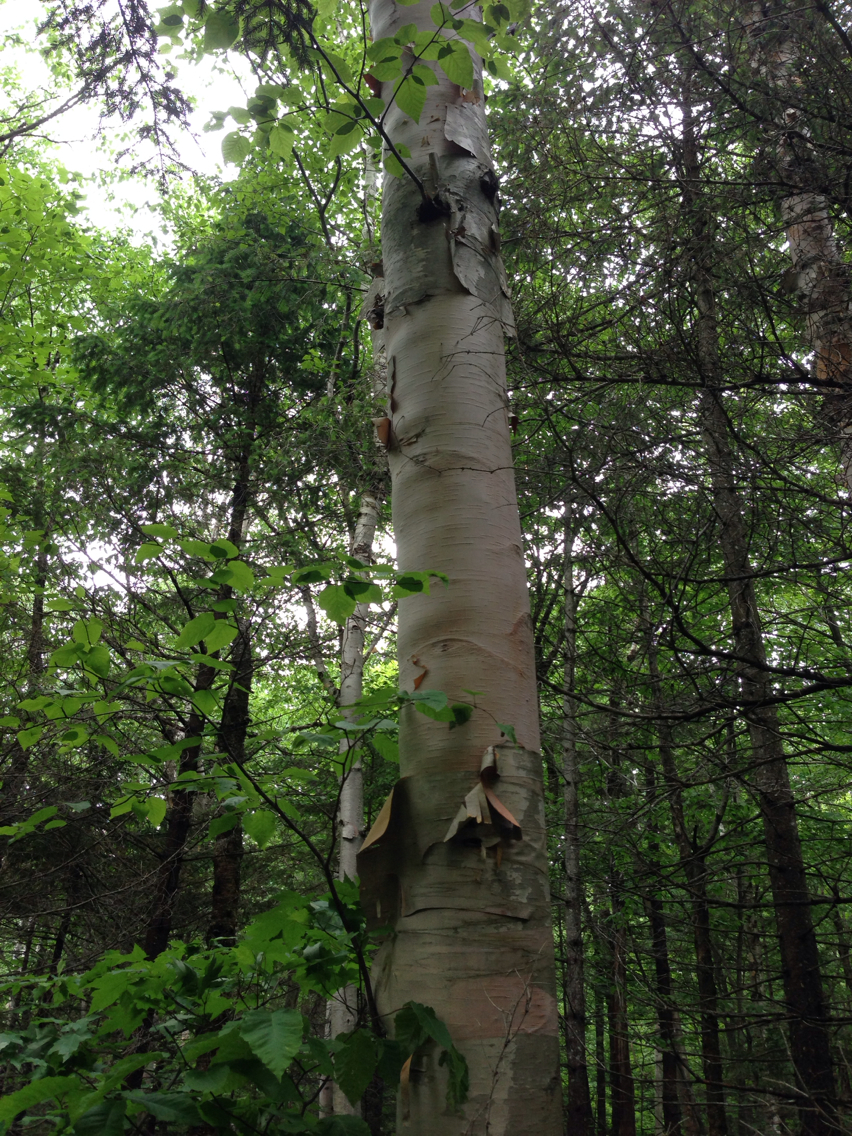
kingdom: Plantae
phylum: Tracheophyta
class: Magnoliopsida
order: Fagales
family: Betulaceae
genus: Betula
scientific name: Betula cordifolia
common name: Mountain white birch
